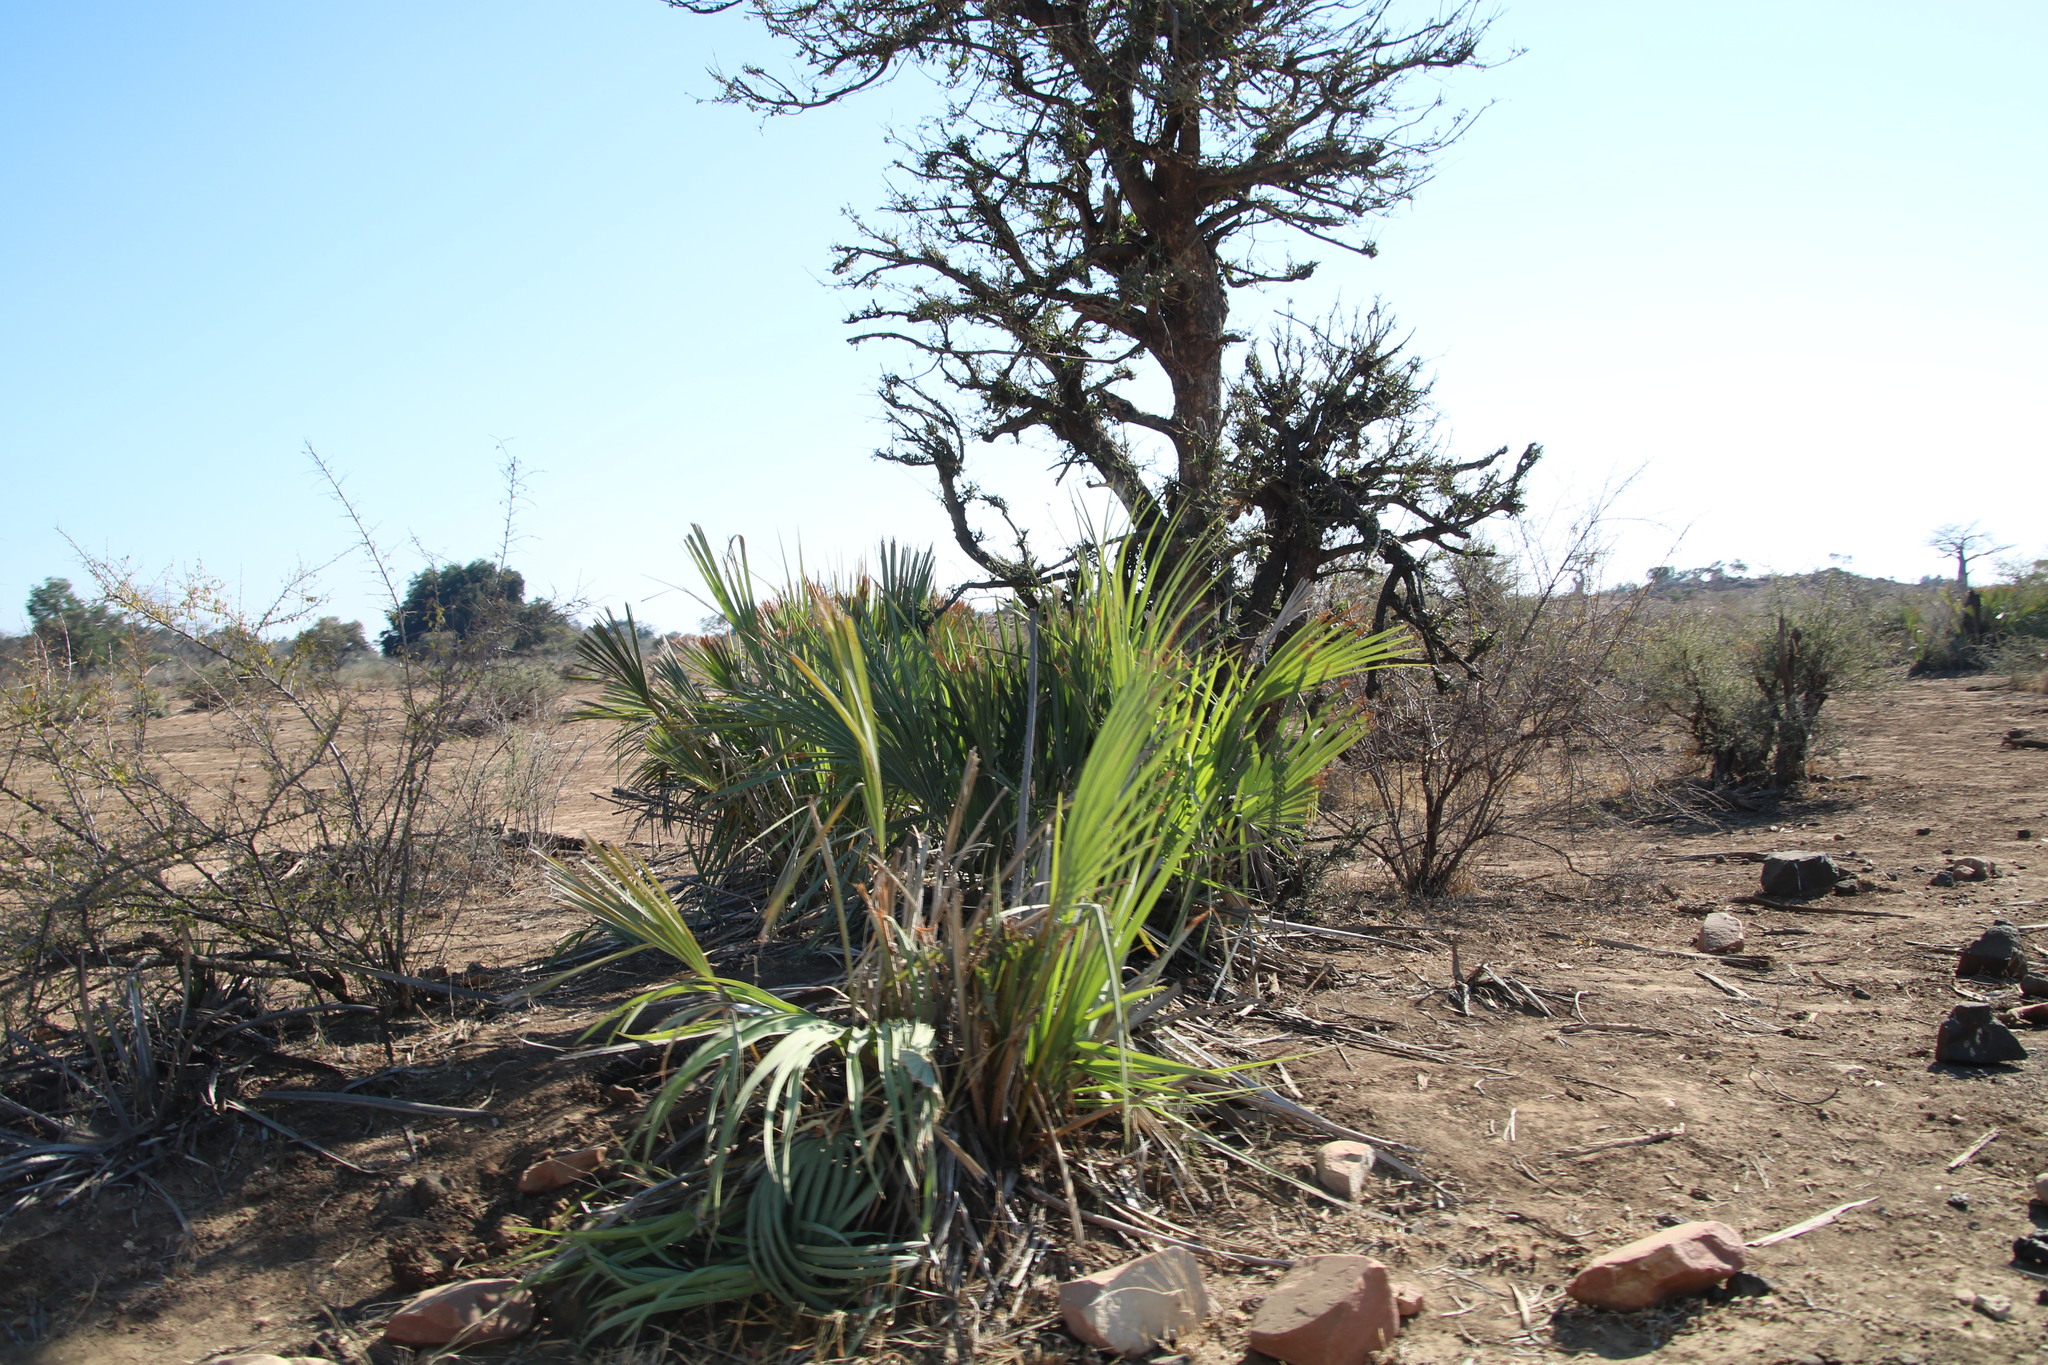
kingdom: Plantae
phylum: Tracheophyta
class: Liliopsida
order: Arecales
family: Arecaceae
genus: Hyphaene
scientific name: Hyphaene petersiana
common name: African ivory nut palm
